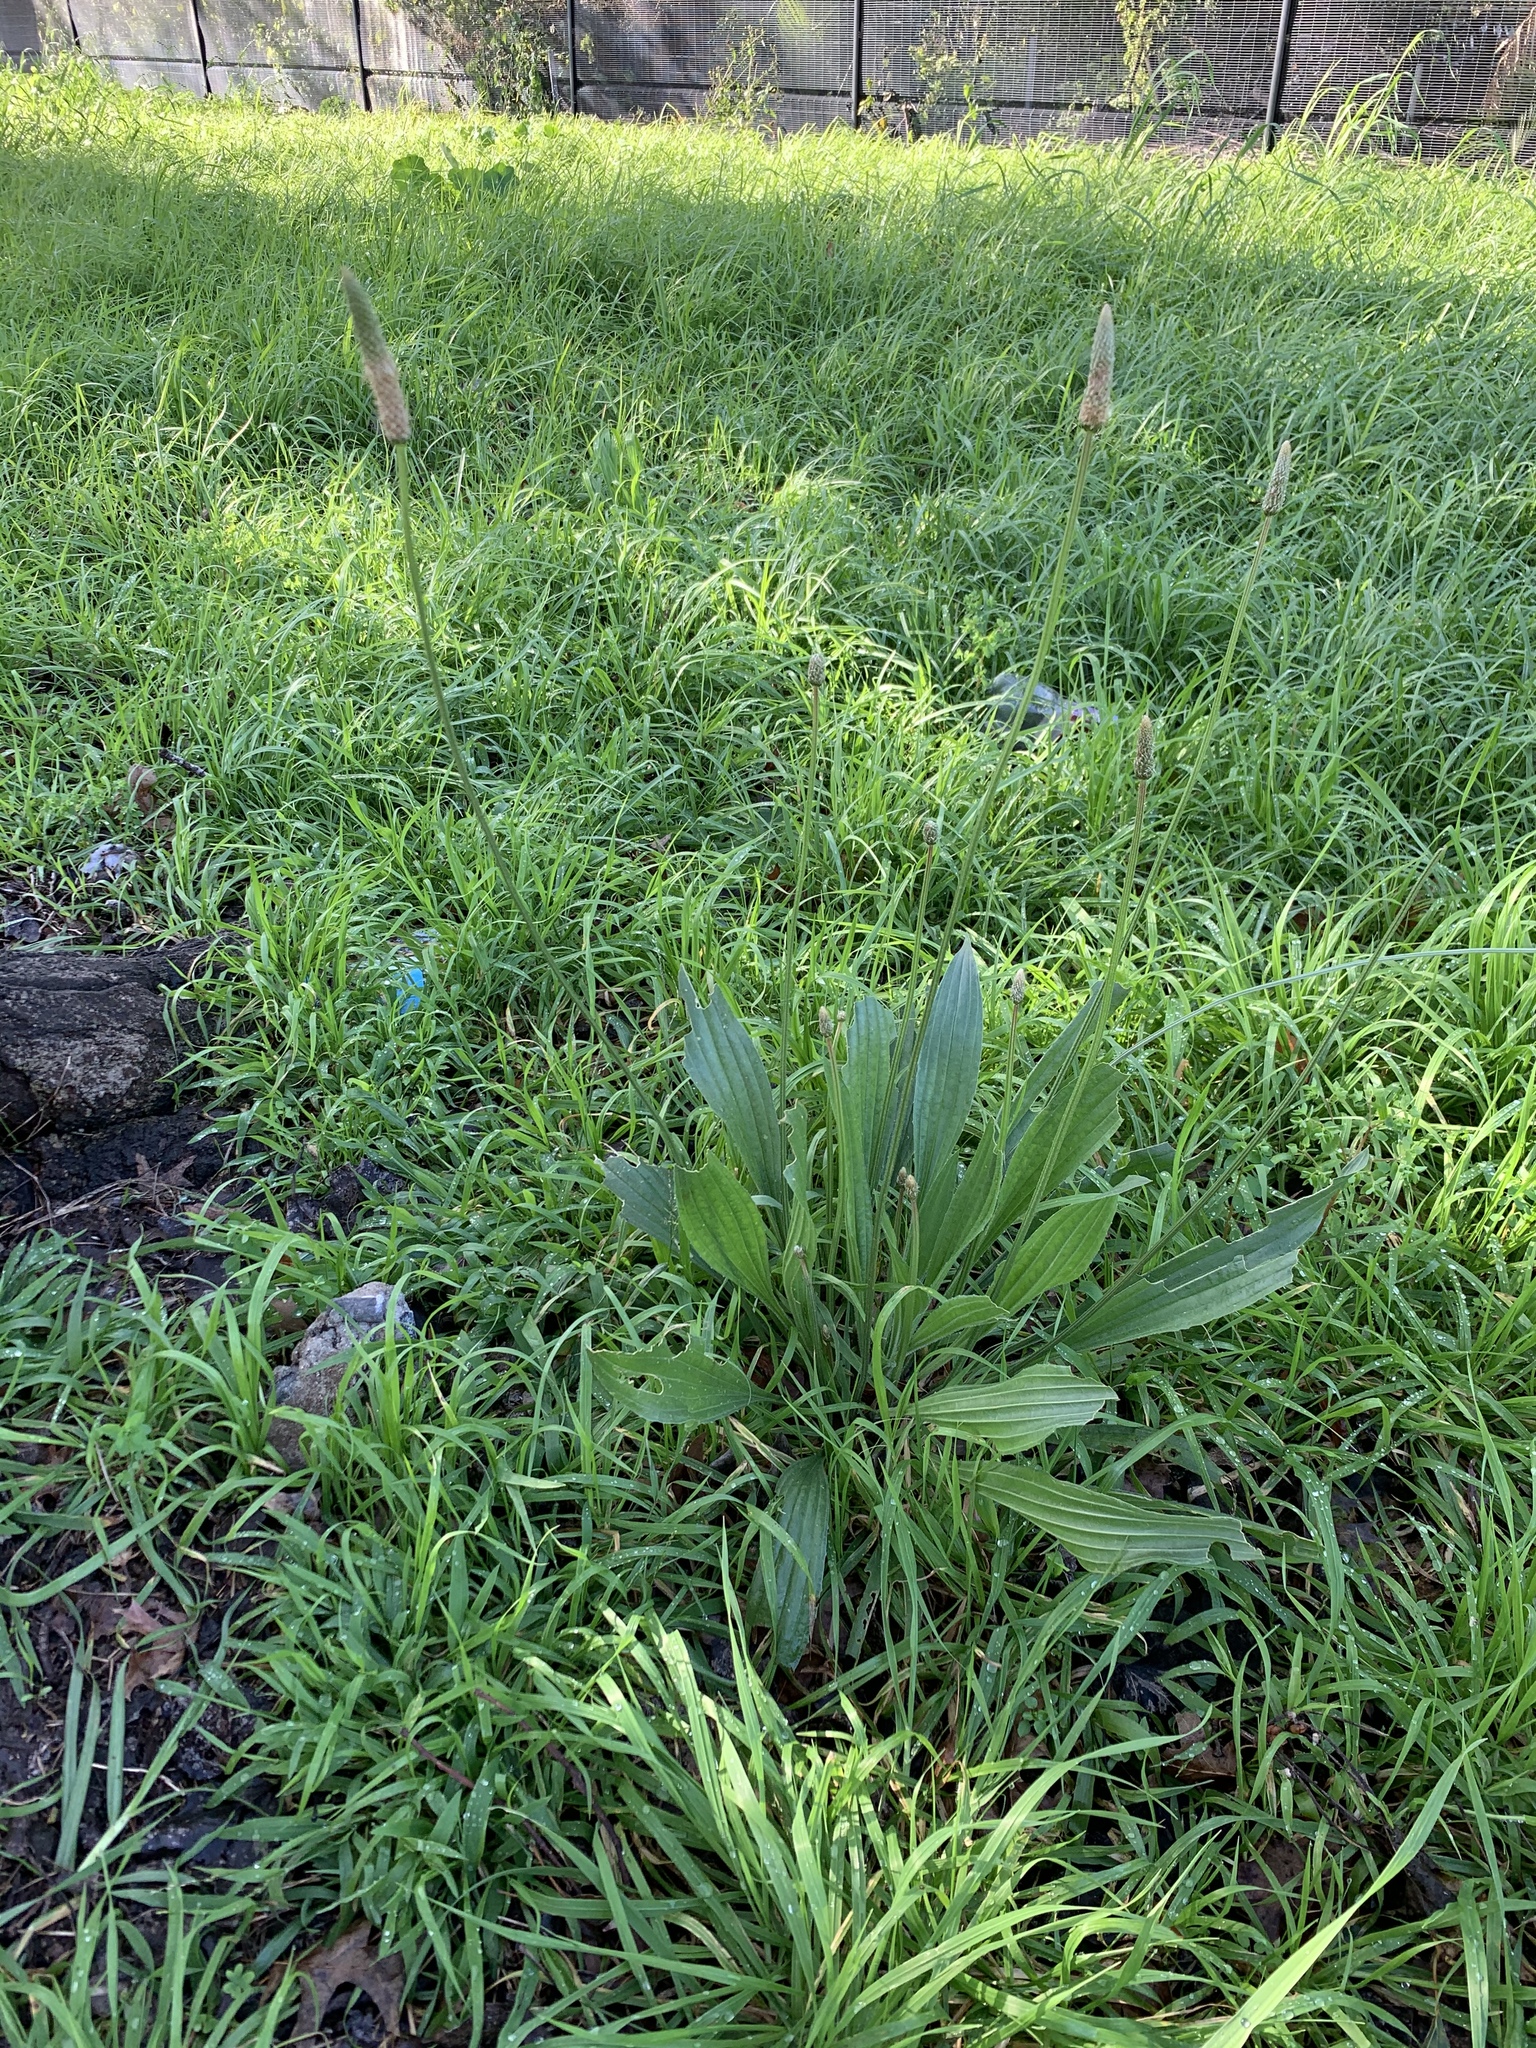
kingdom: Plantae
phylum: Tracheophyta
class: Magnoliopsida
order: Lamiales
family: Plantaginaceae
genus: Plantago
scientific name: Plantago lanceolata
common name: Ribwort plantain
